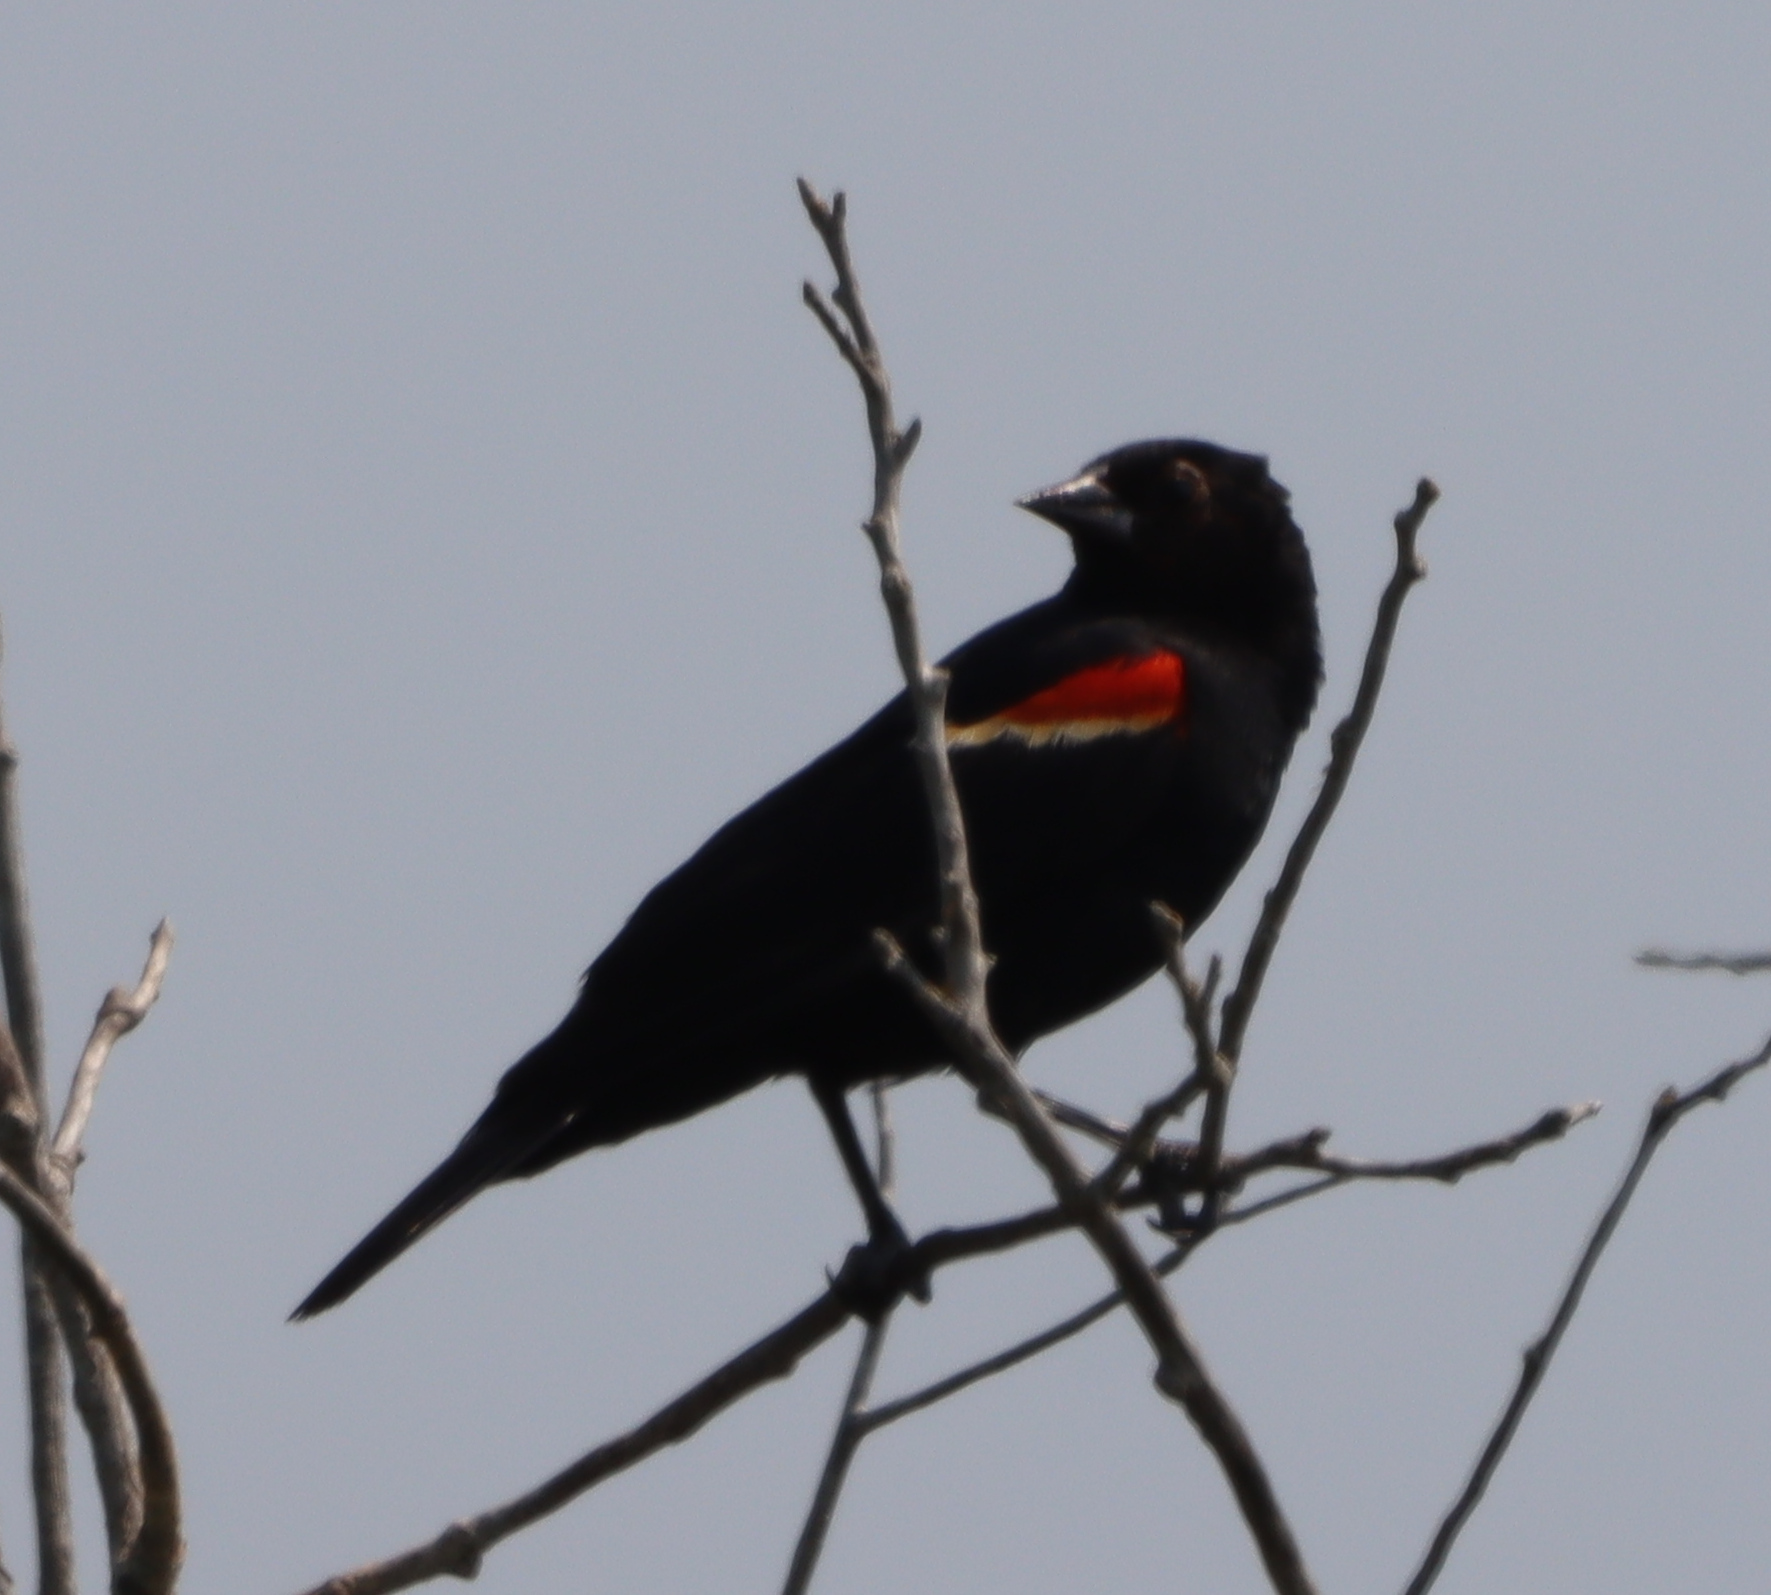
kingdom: Animalia
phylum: Chordata
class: Aves
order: Passeriformes
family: Icteridae
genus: Agelaius
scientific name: Agelaius phoeniceus
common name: Red-winged blackbird
